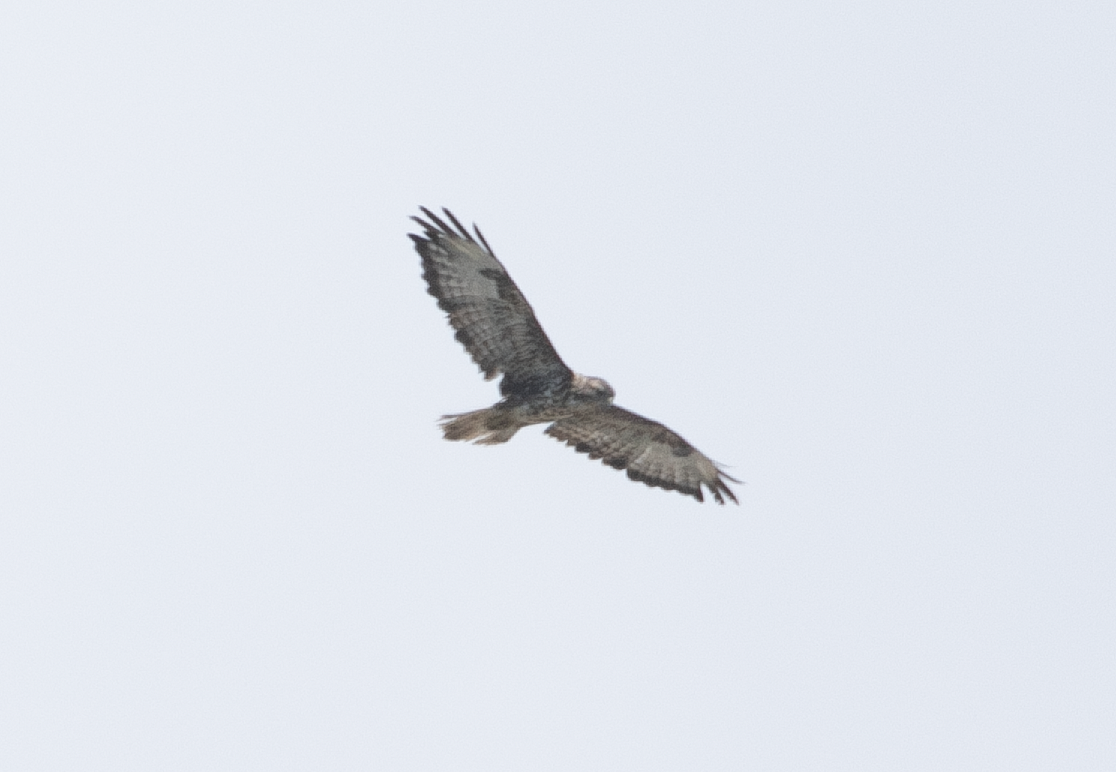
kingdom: Animalia
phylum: Chordata
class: Aves
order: Accipitriformes
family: Accipitridae
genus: Buteo
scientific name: Buteo buteo
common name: Common buzzard
